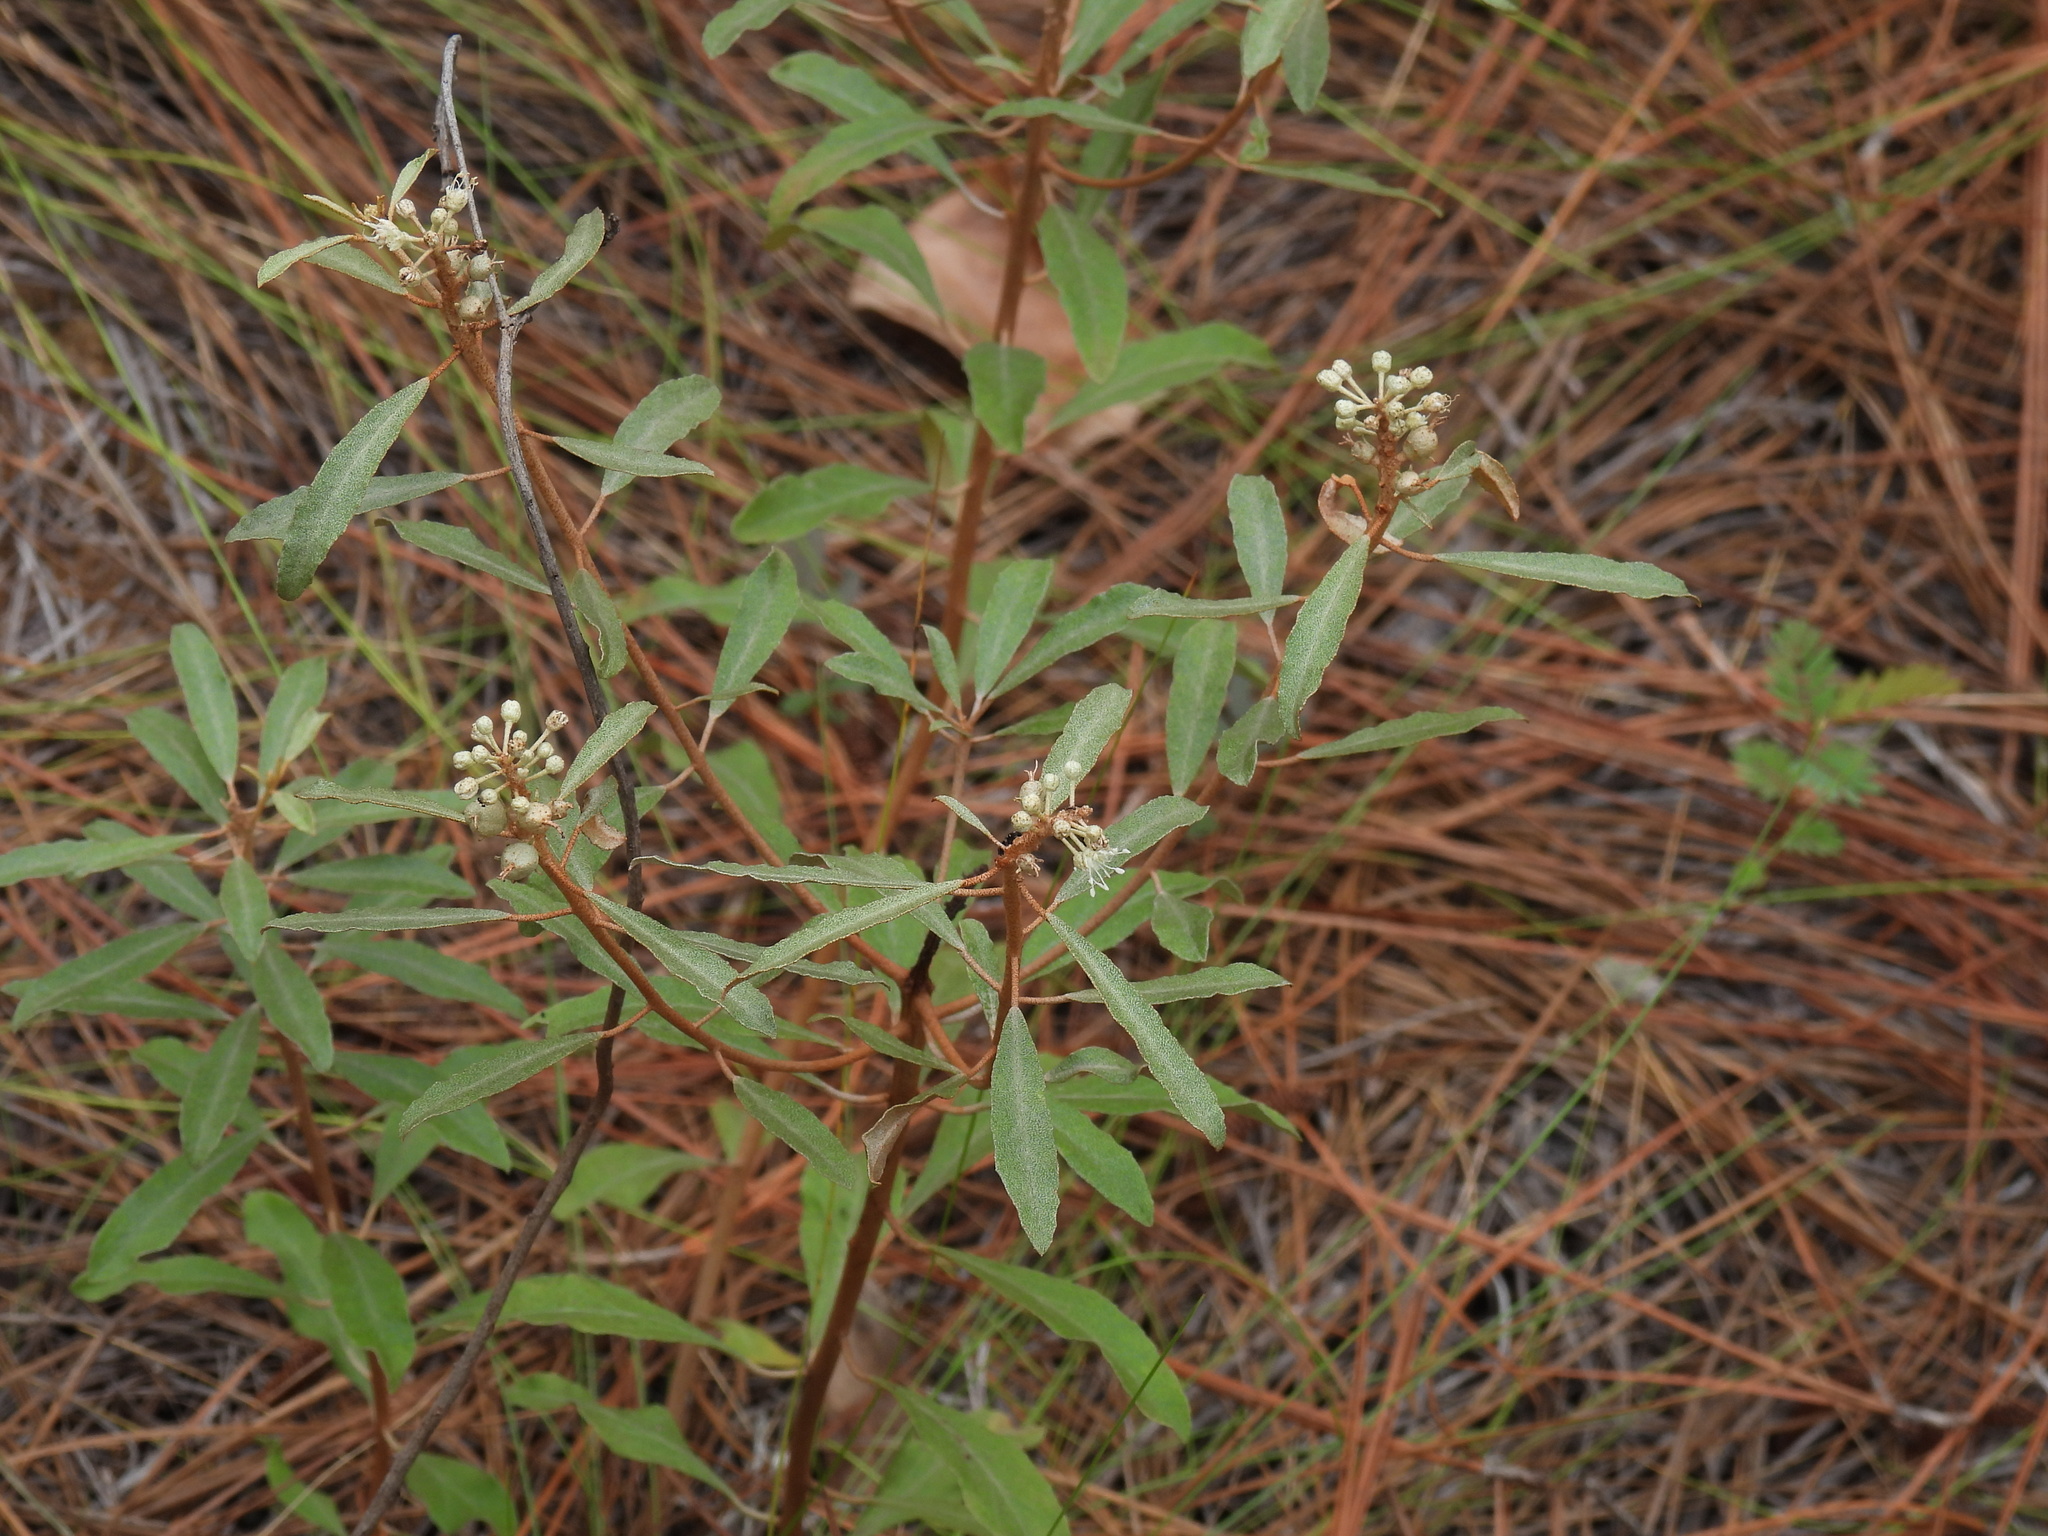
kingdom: Plantae
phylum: Tracheophyta
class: Magnoliopsida
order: Malpighiales
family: Euphorbiaceae
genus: Croton
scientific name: Croton argyranthemus
